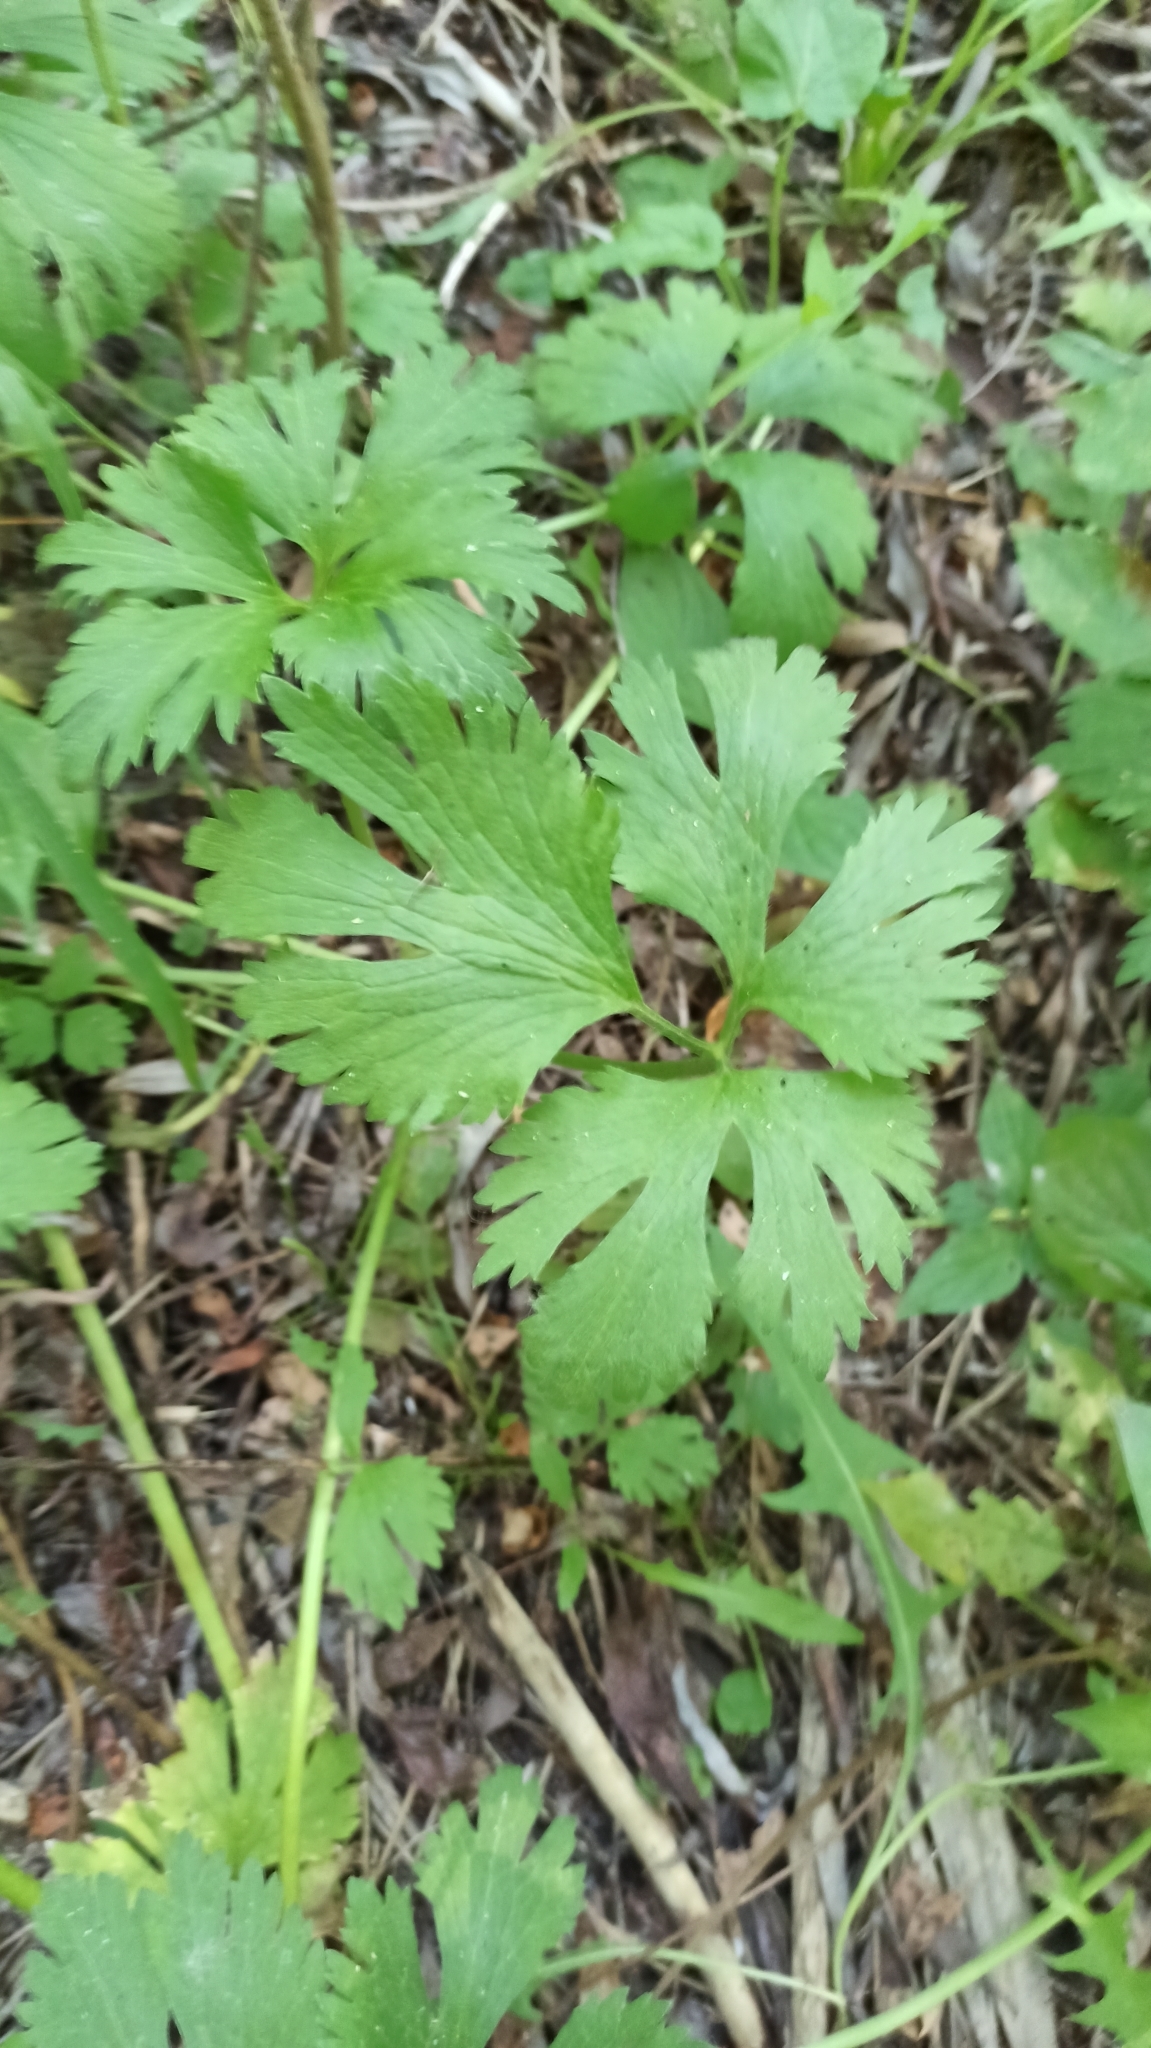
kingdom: Plantae
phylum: Tracheophyta
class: Magnoliopsida
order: Ranunculales
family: Ranunculaceae
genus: Ranunculus
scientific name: Ranunculus repens
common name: Creeping buttercup
